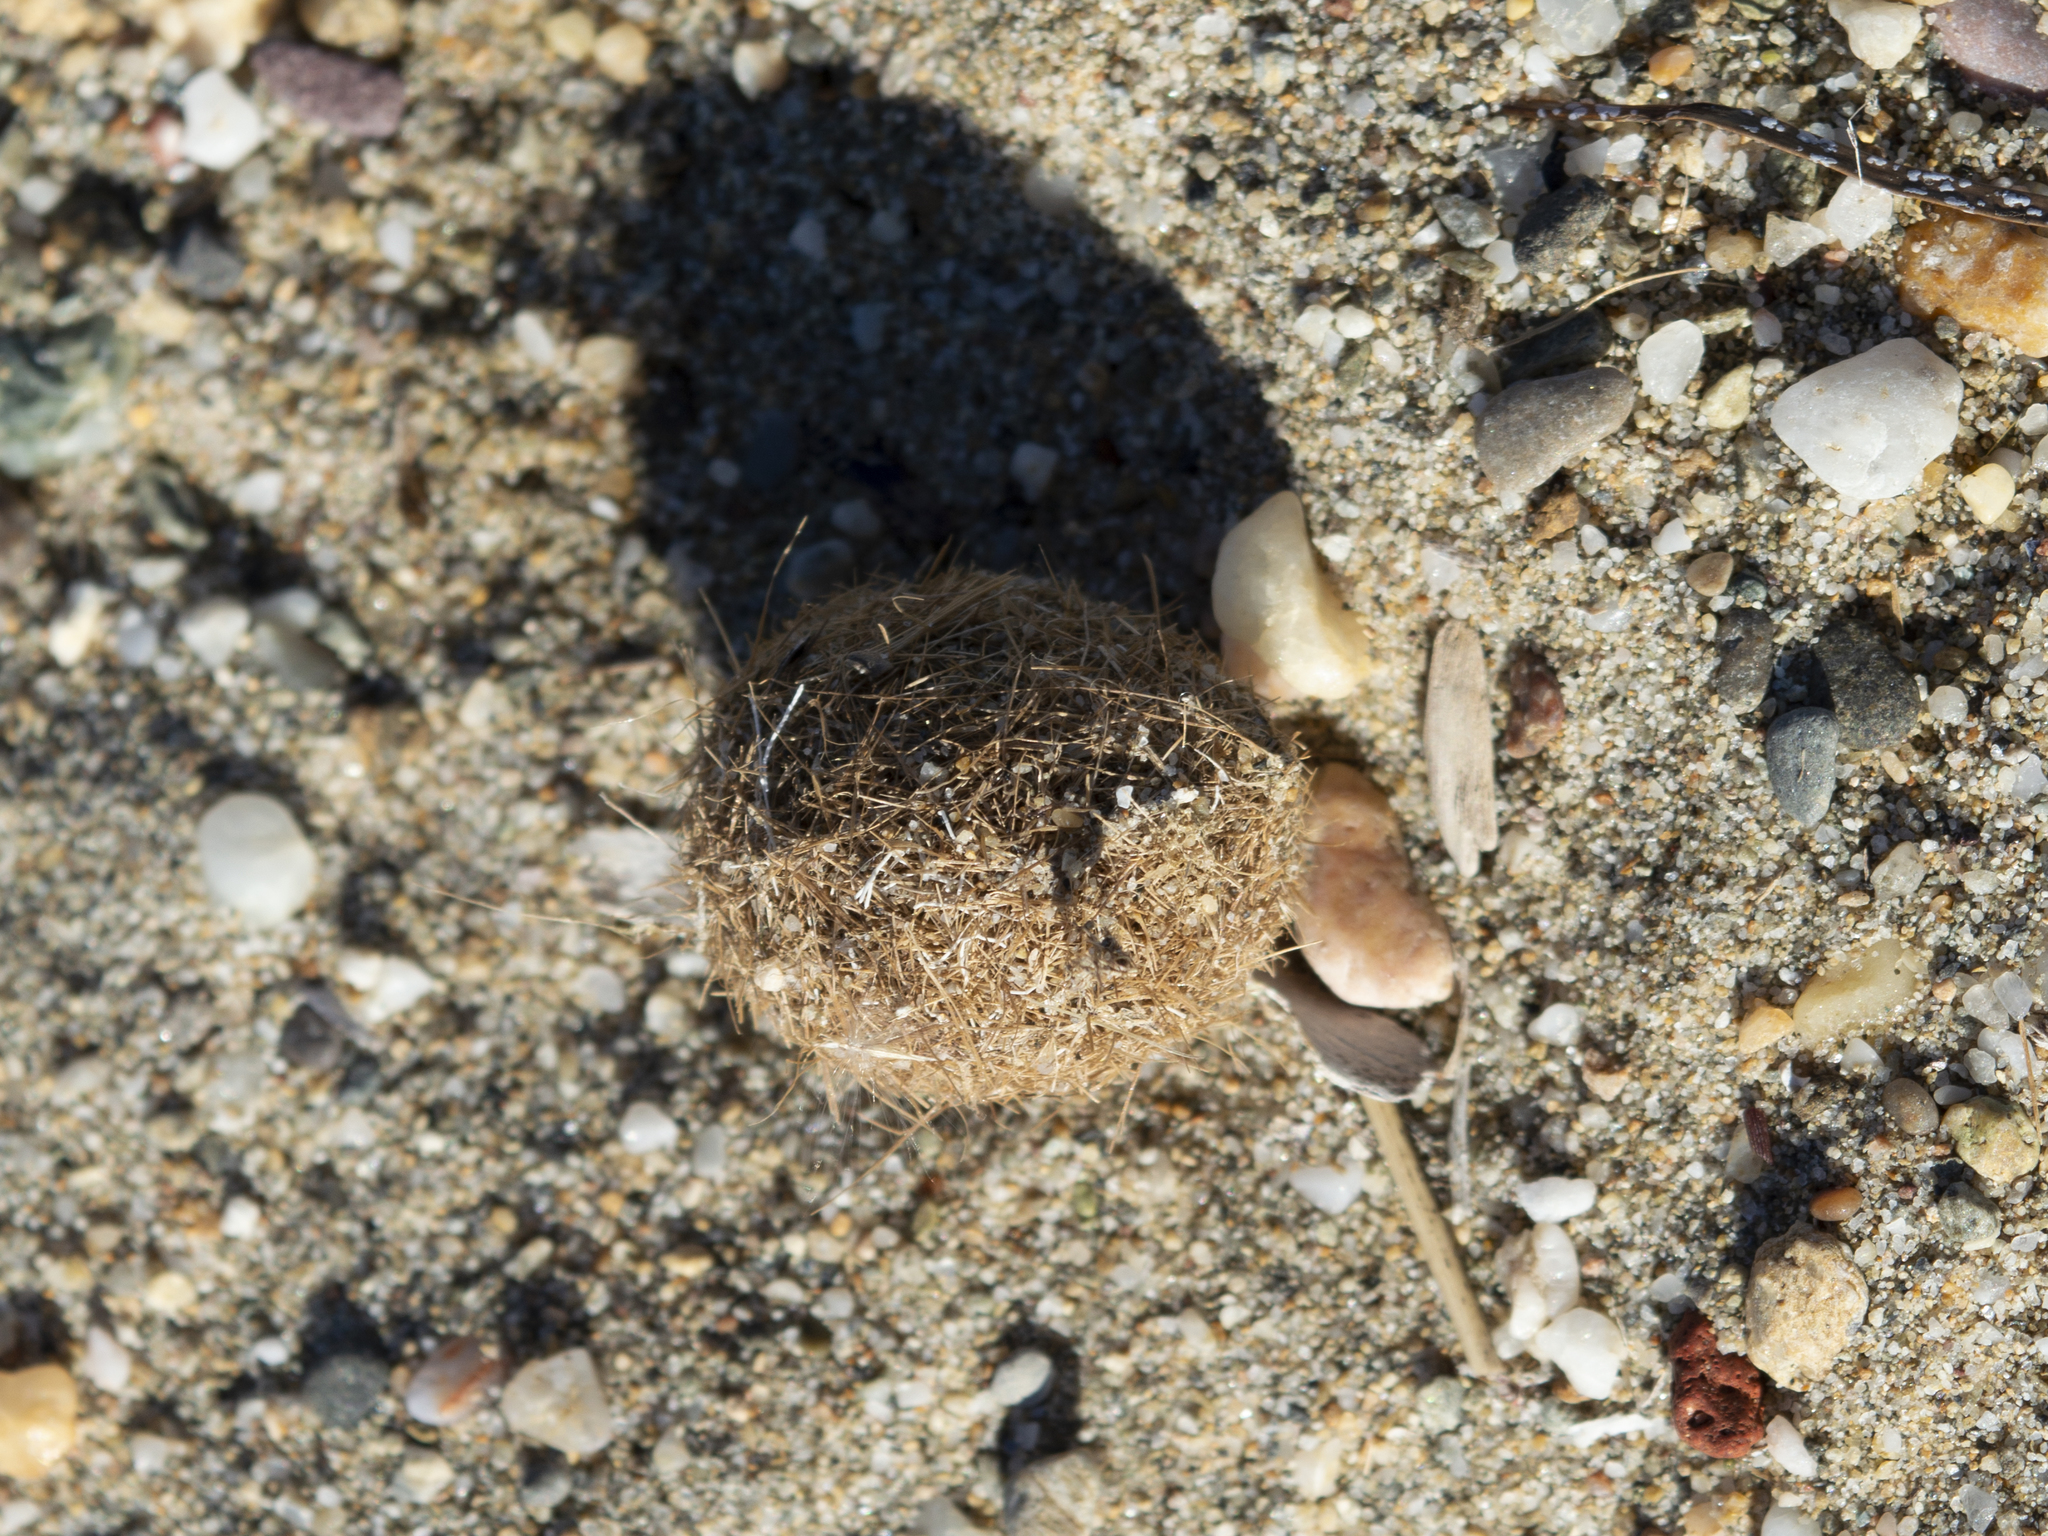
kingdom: Plantae
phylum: Tracheophyta
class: Liliopsida
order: Alismatales
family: Posidoniaceae
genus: Posidonia
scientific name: Posidonia oceanica
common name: Mediterranean tapeweed
